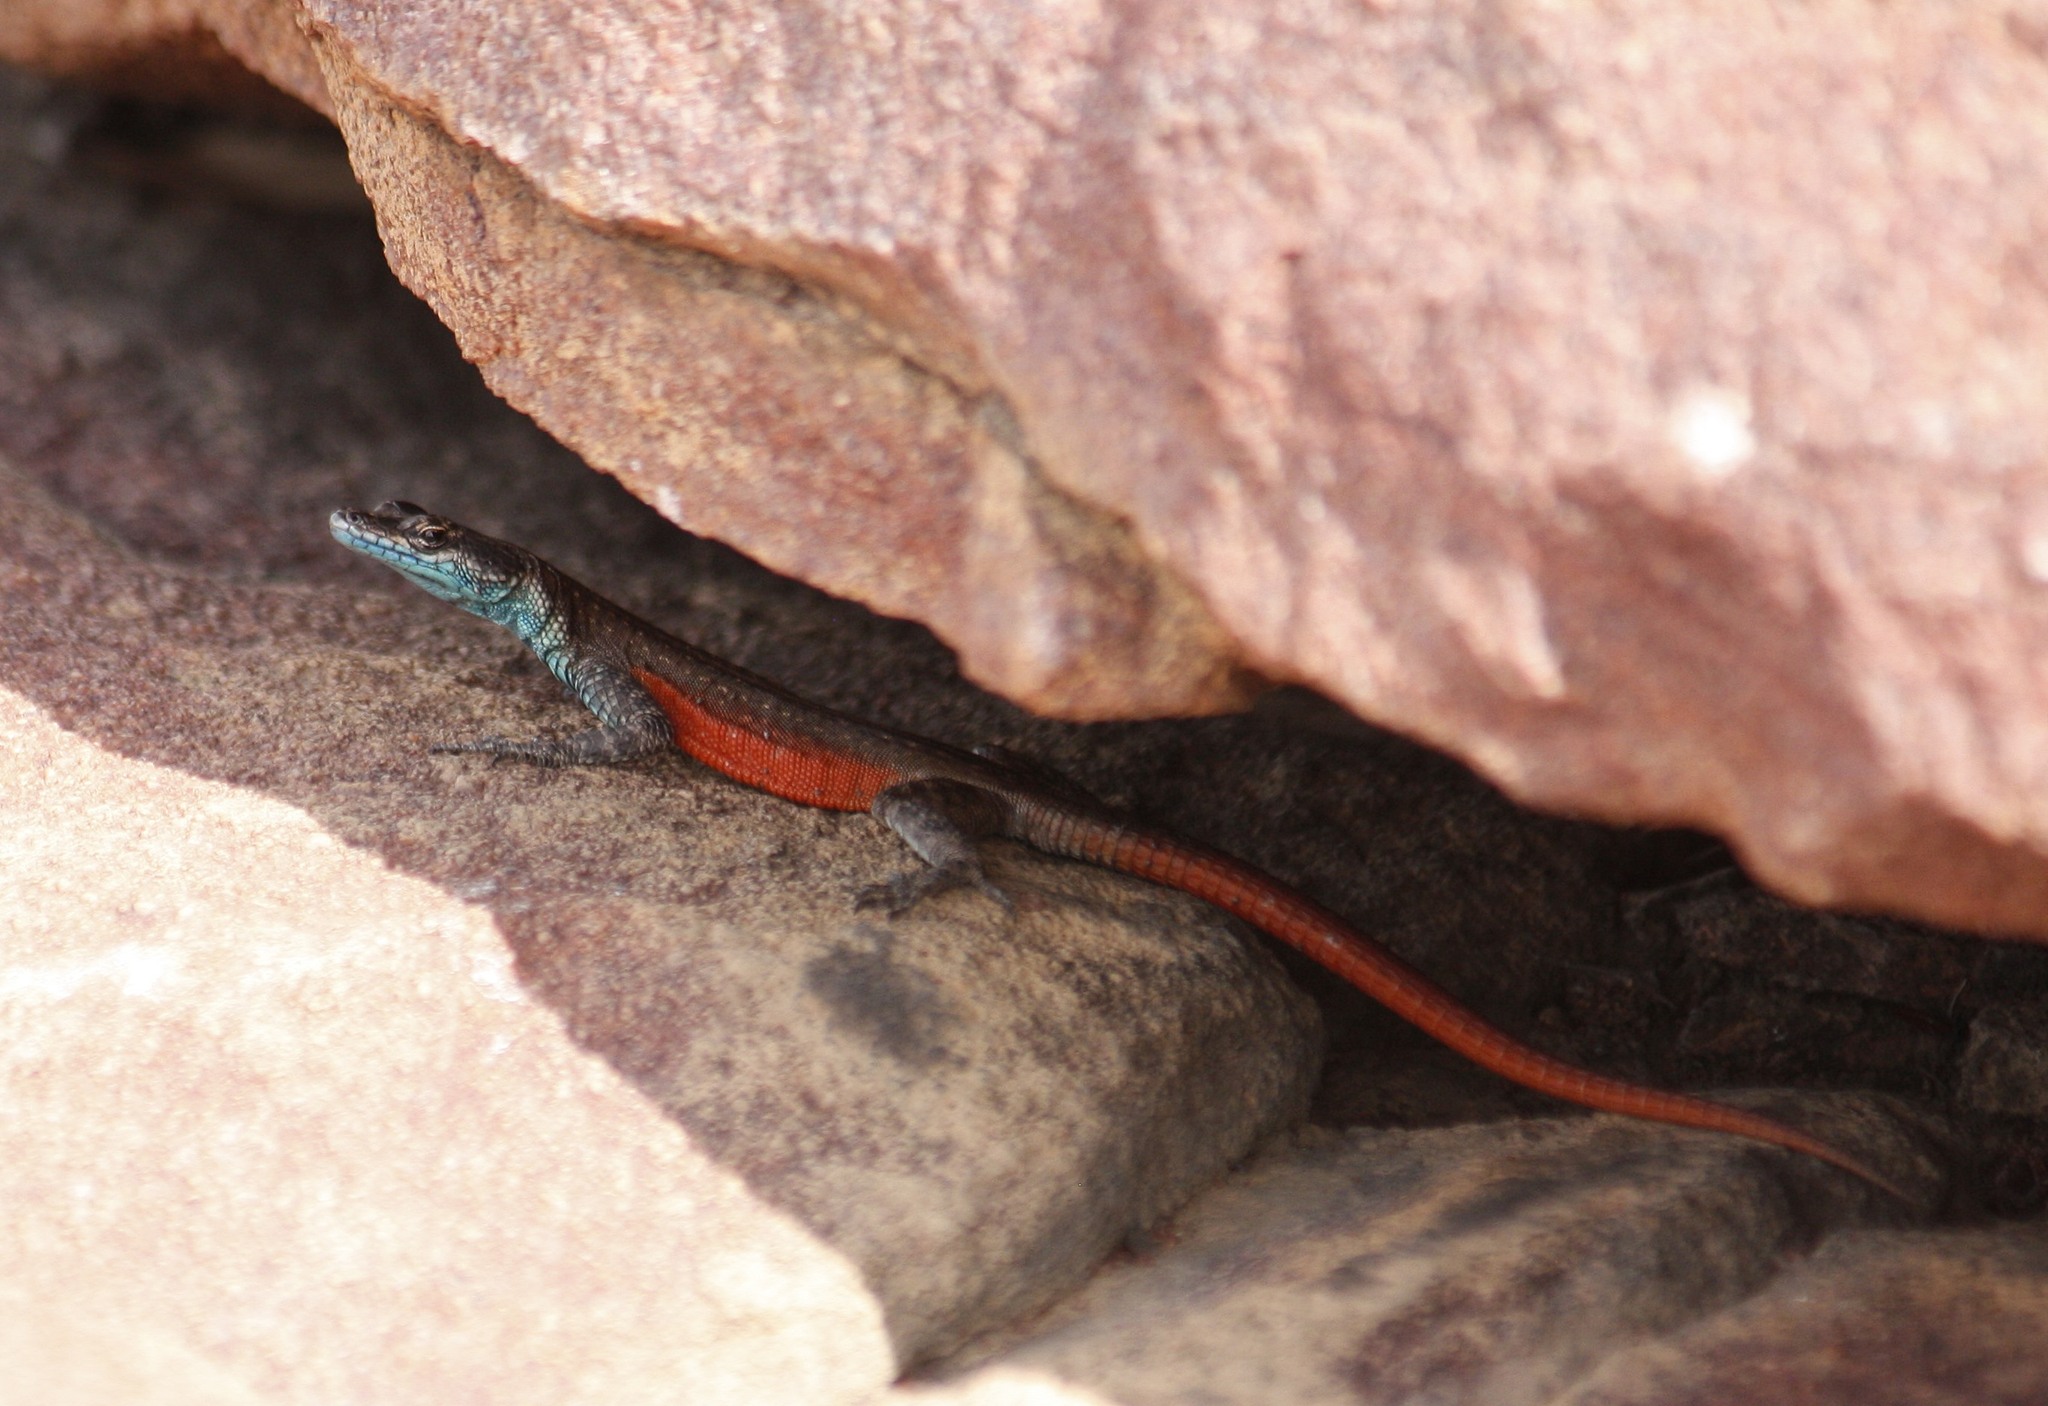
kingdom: Animalia
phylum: Chordata
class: Squamata
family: Cordylidae
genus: Platysaurus
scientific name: Platysaurus minor
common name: Waterberg flat lizard
